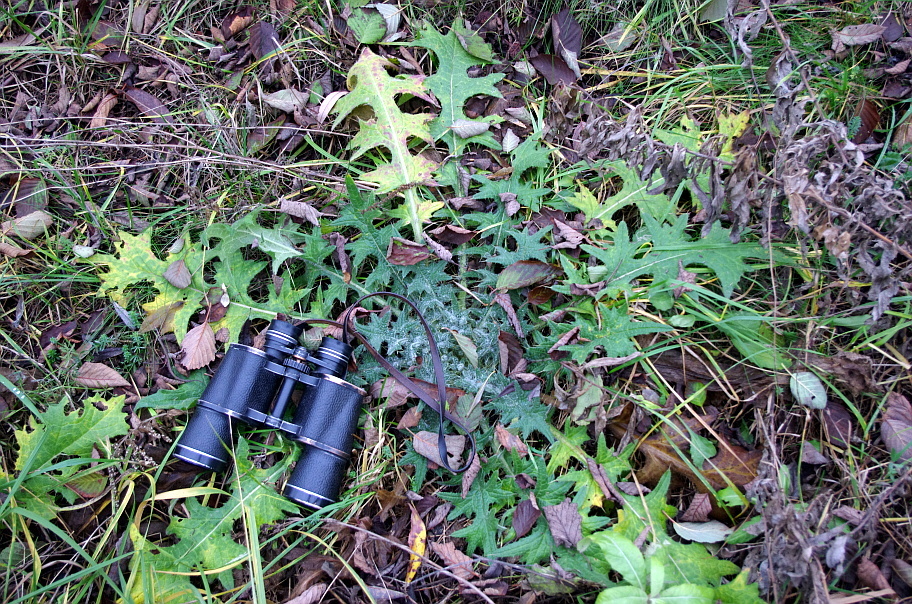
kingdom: Plantae
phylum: Tracheophyta
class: Magnoliopsida
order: Asterales
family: Asteraceae
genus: Cirsium
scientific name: Cirsium vulgare
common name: Bull thistle
